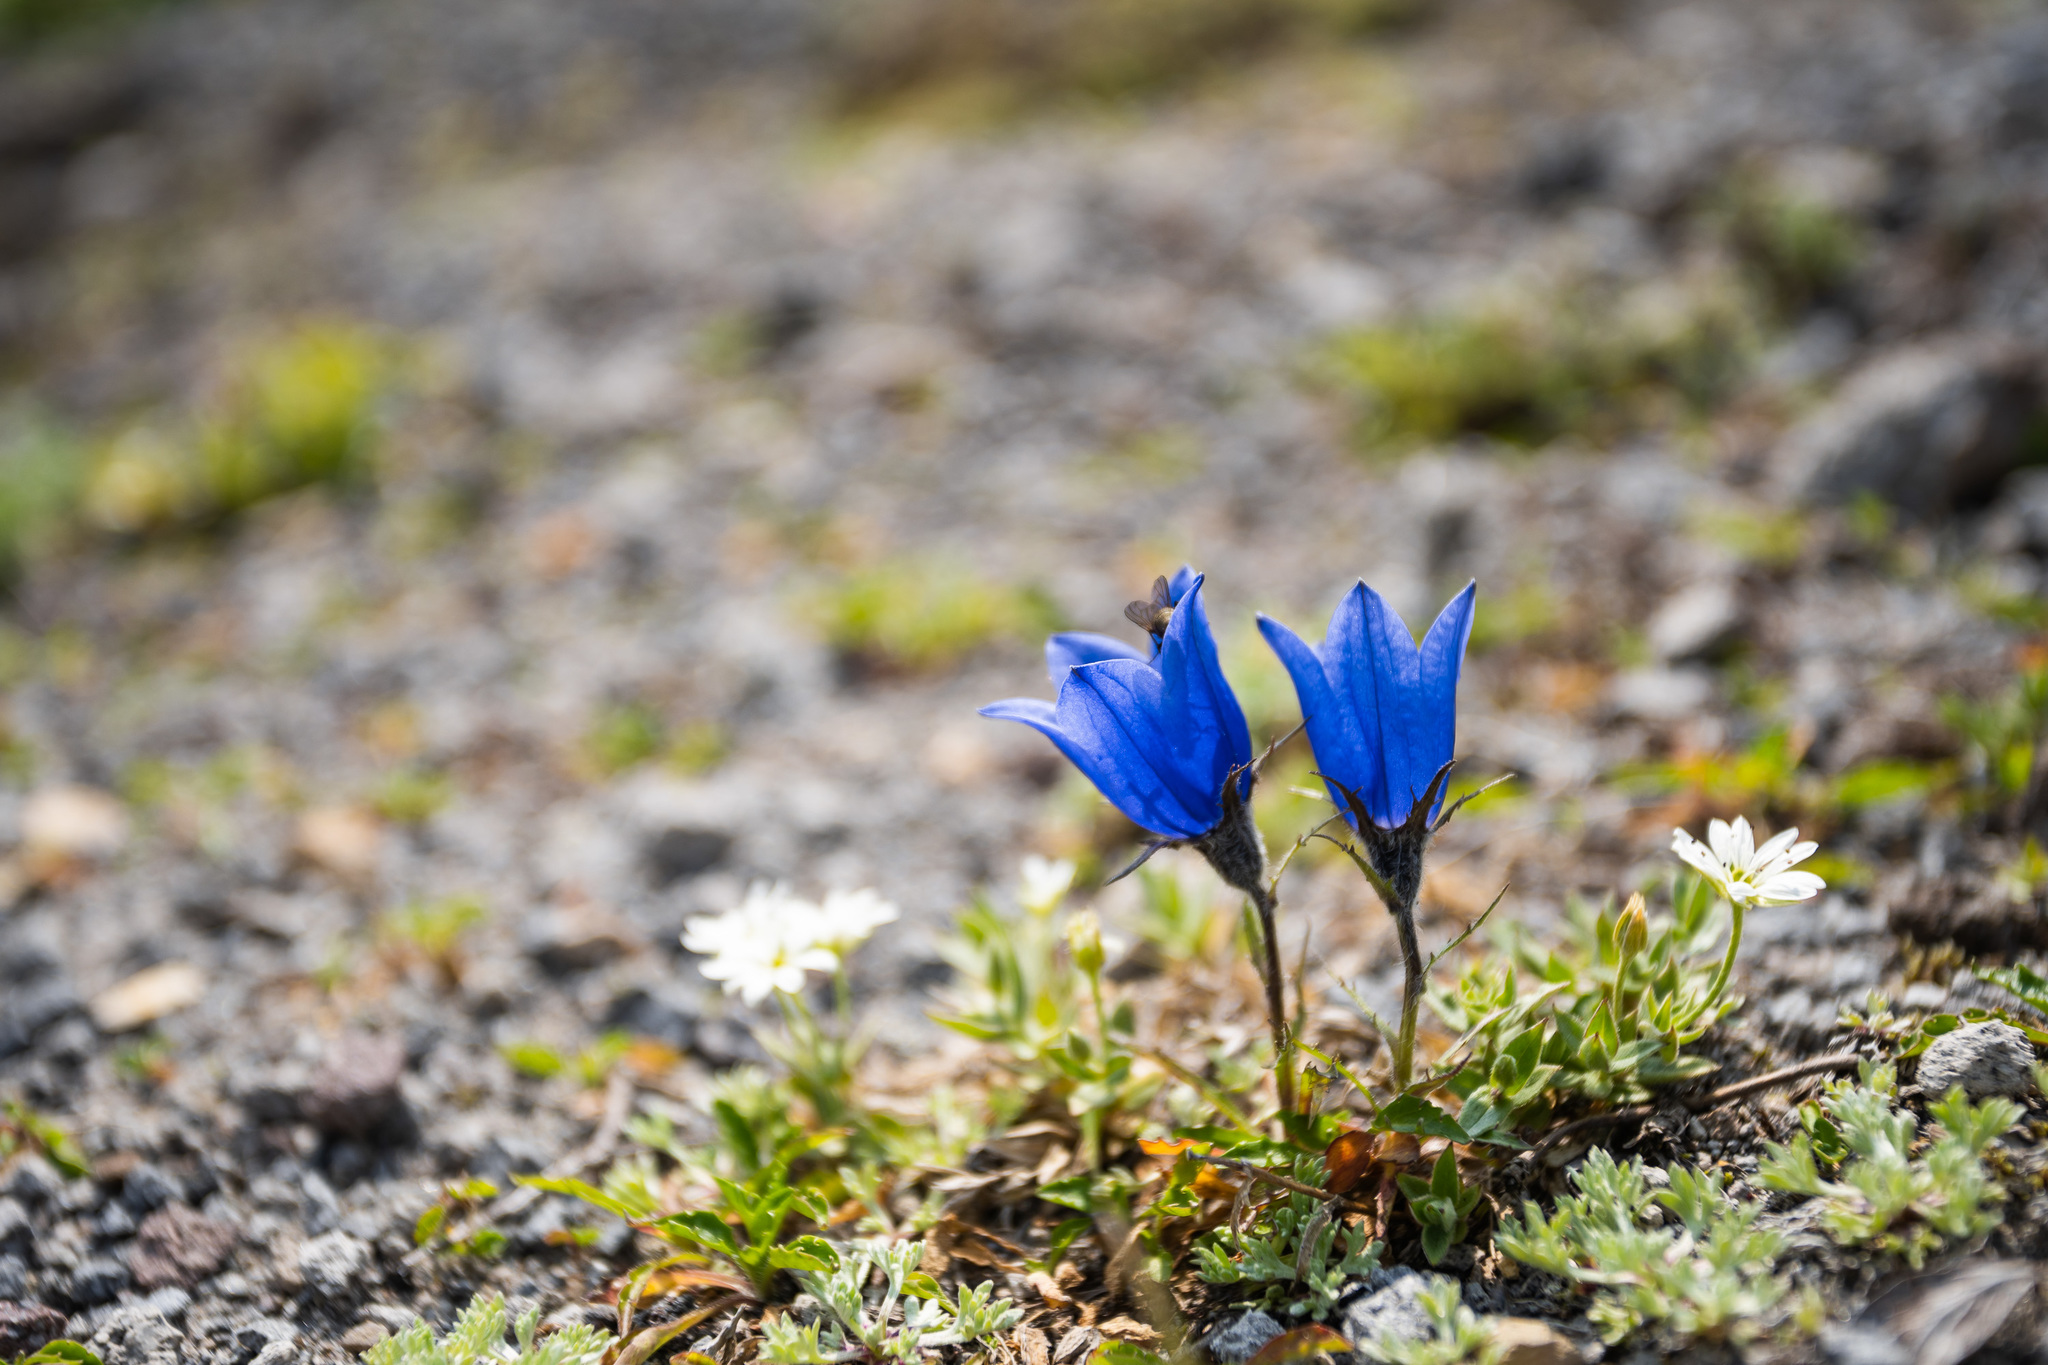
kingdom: Plantae
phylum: Tracheophyta
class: Magnoliopsida
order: Asterales
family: Campanulaceae
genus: Campanula
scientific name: Campanula lasiocarpa
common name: Mountain harebell
